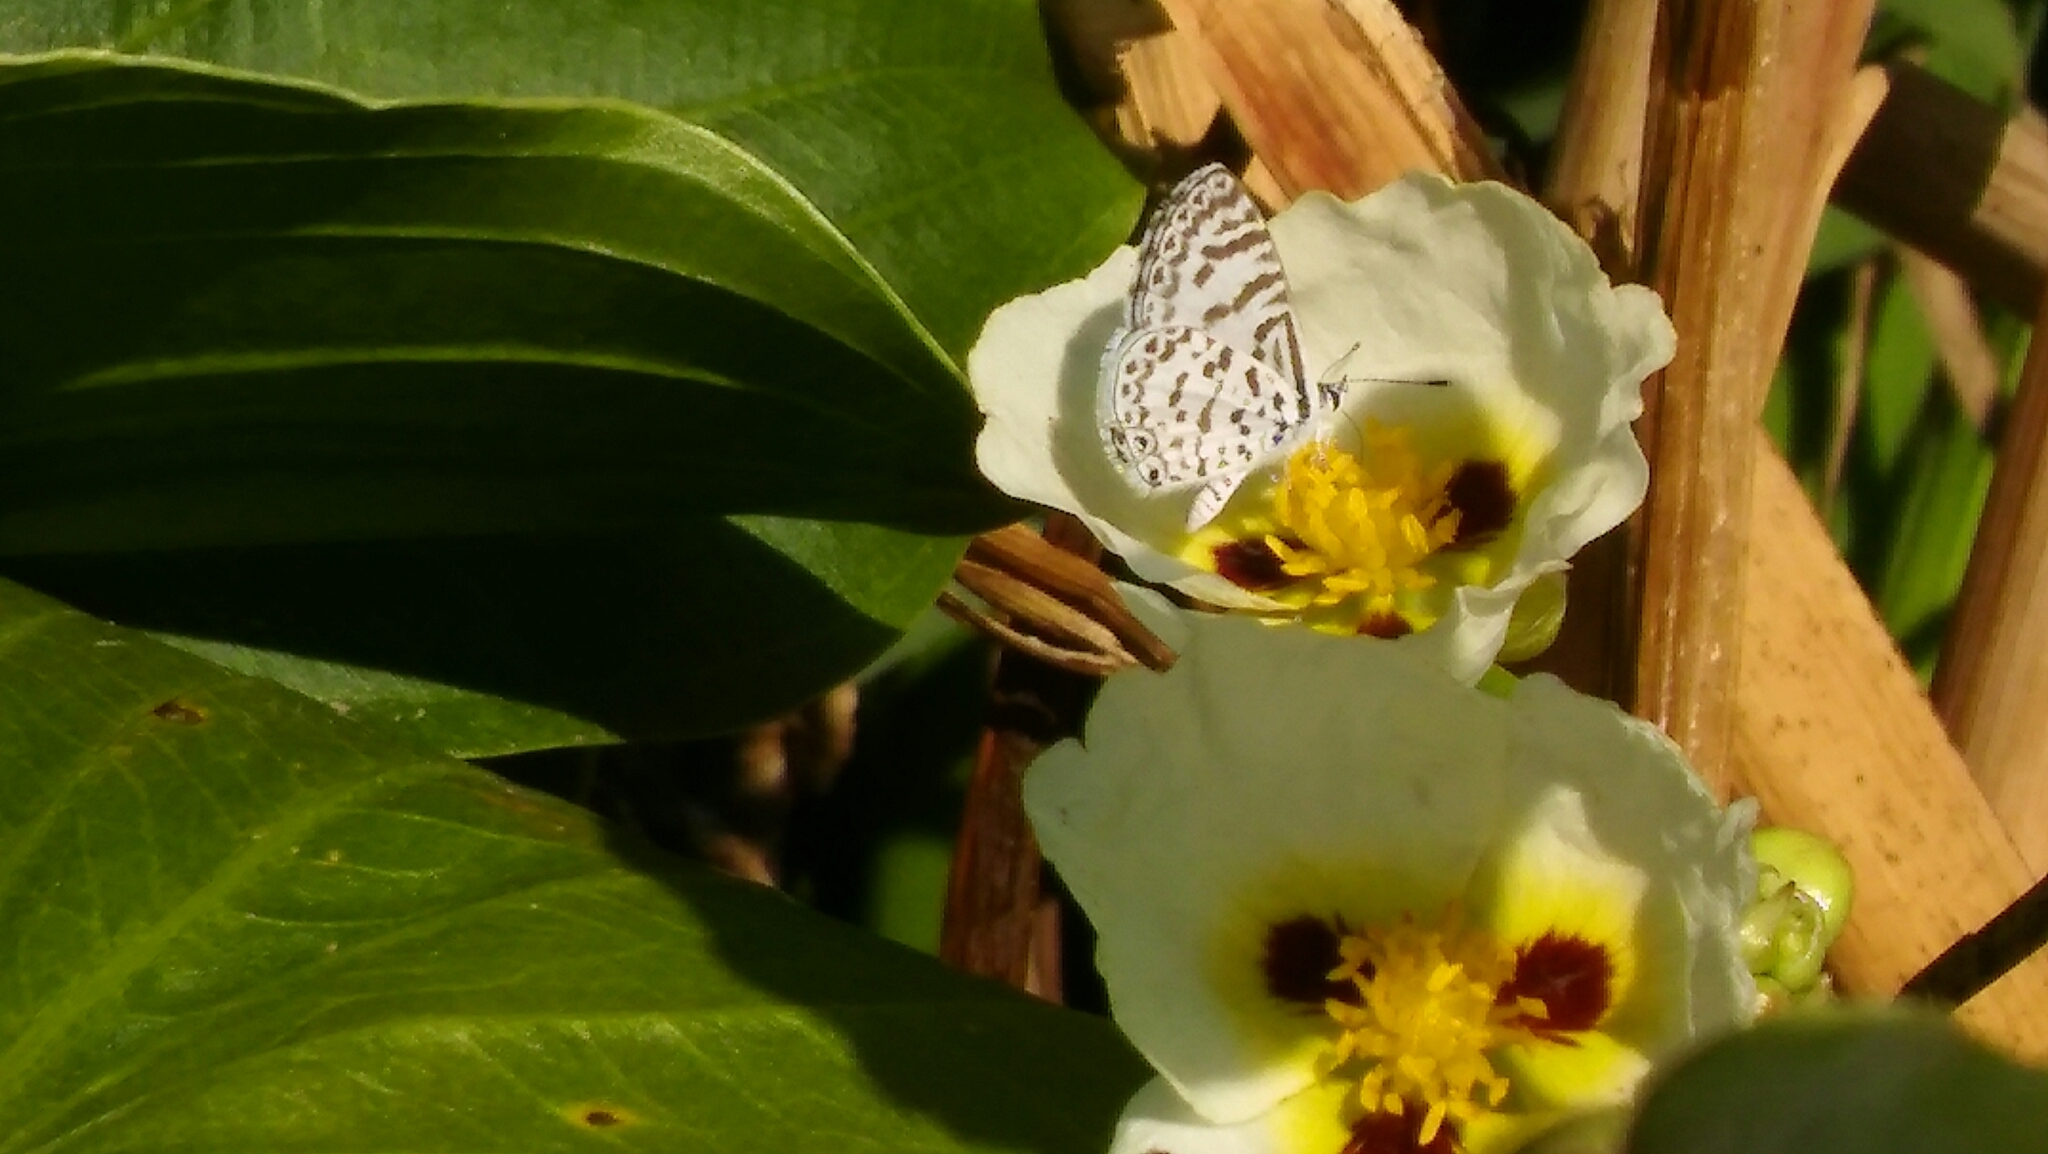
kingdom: Animalia
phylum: Arthropoda
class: Insecta
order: Lepidoptera
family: Lycaenidae
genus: Leptotes
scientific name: Leptotes cassius
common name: Cassius blue
